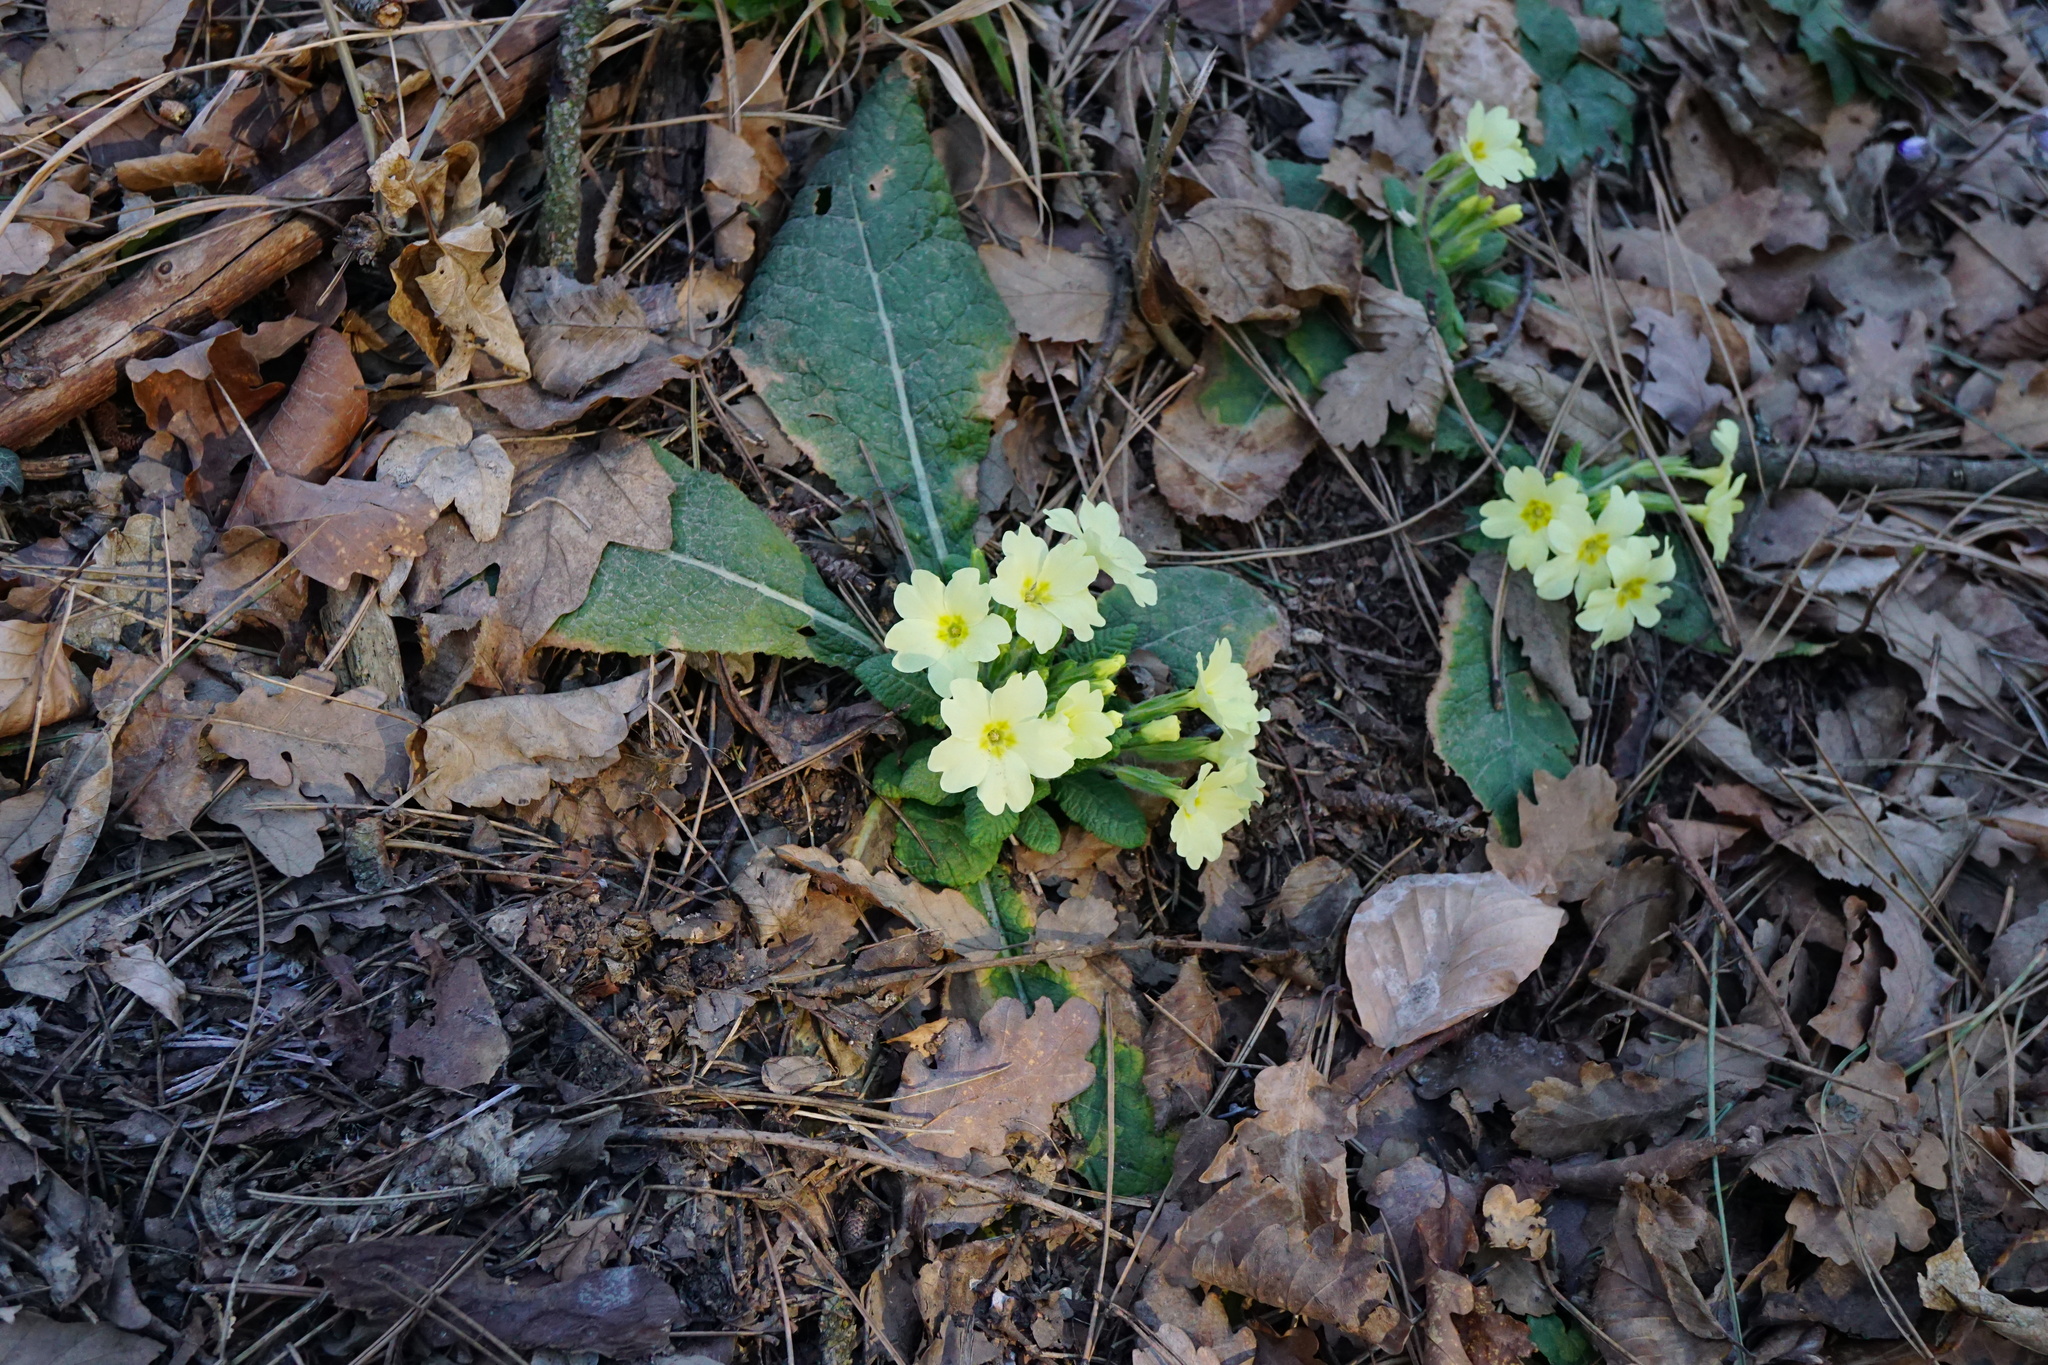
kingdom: Plantae
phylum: Tracheophyta
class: Magnoliopsida
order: Ericales
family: Primulaceae
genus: Primula
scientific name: Primula vulgaris
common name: Primrose
